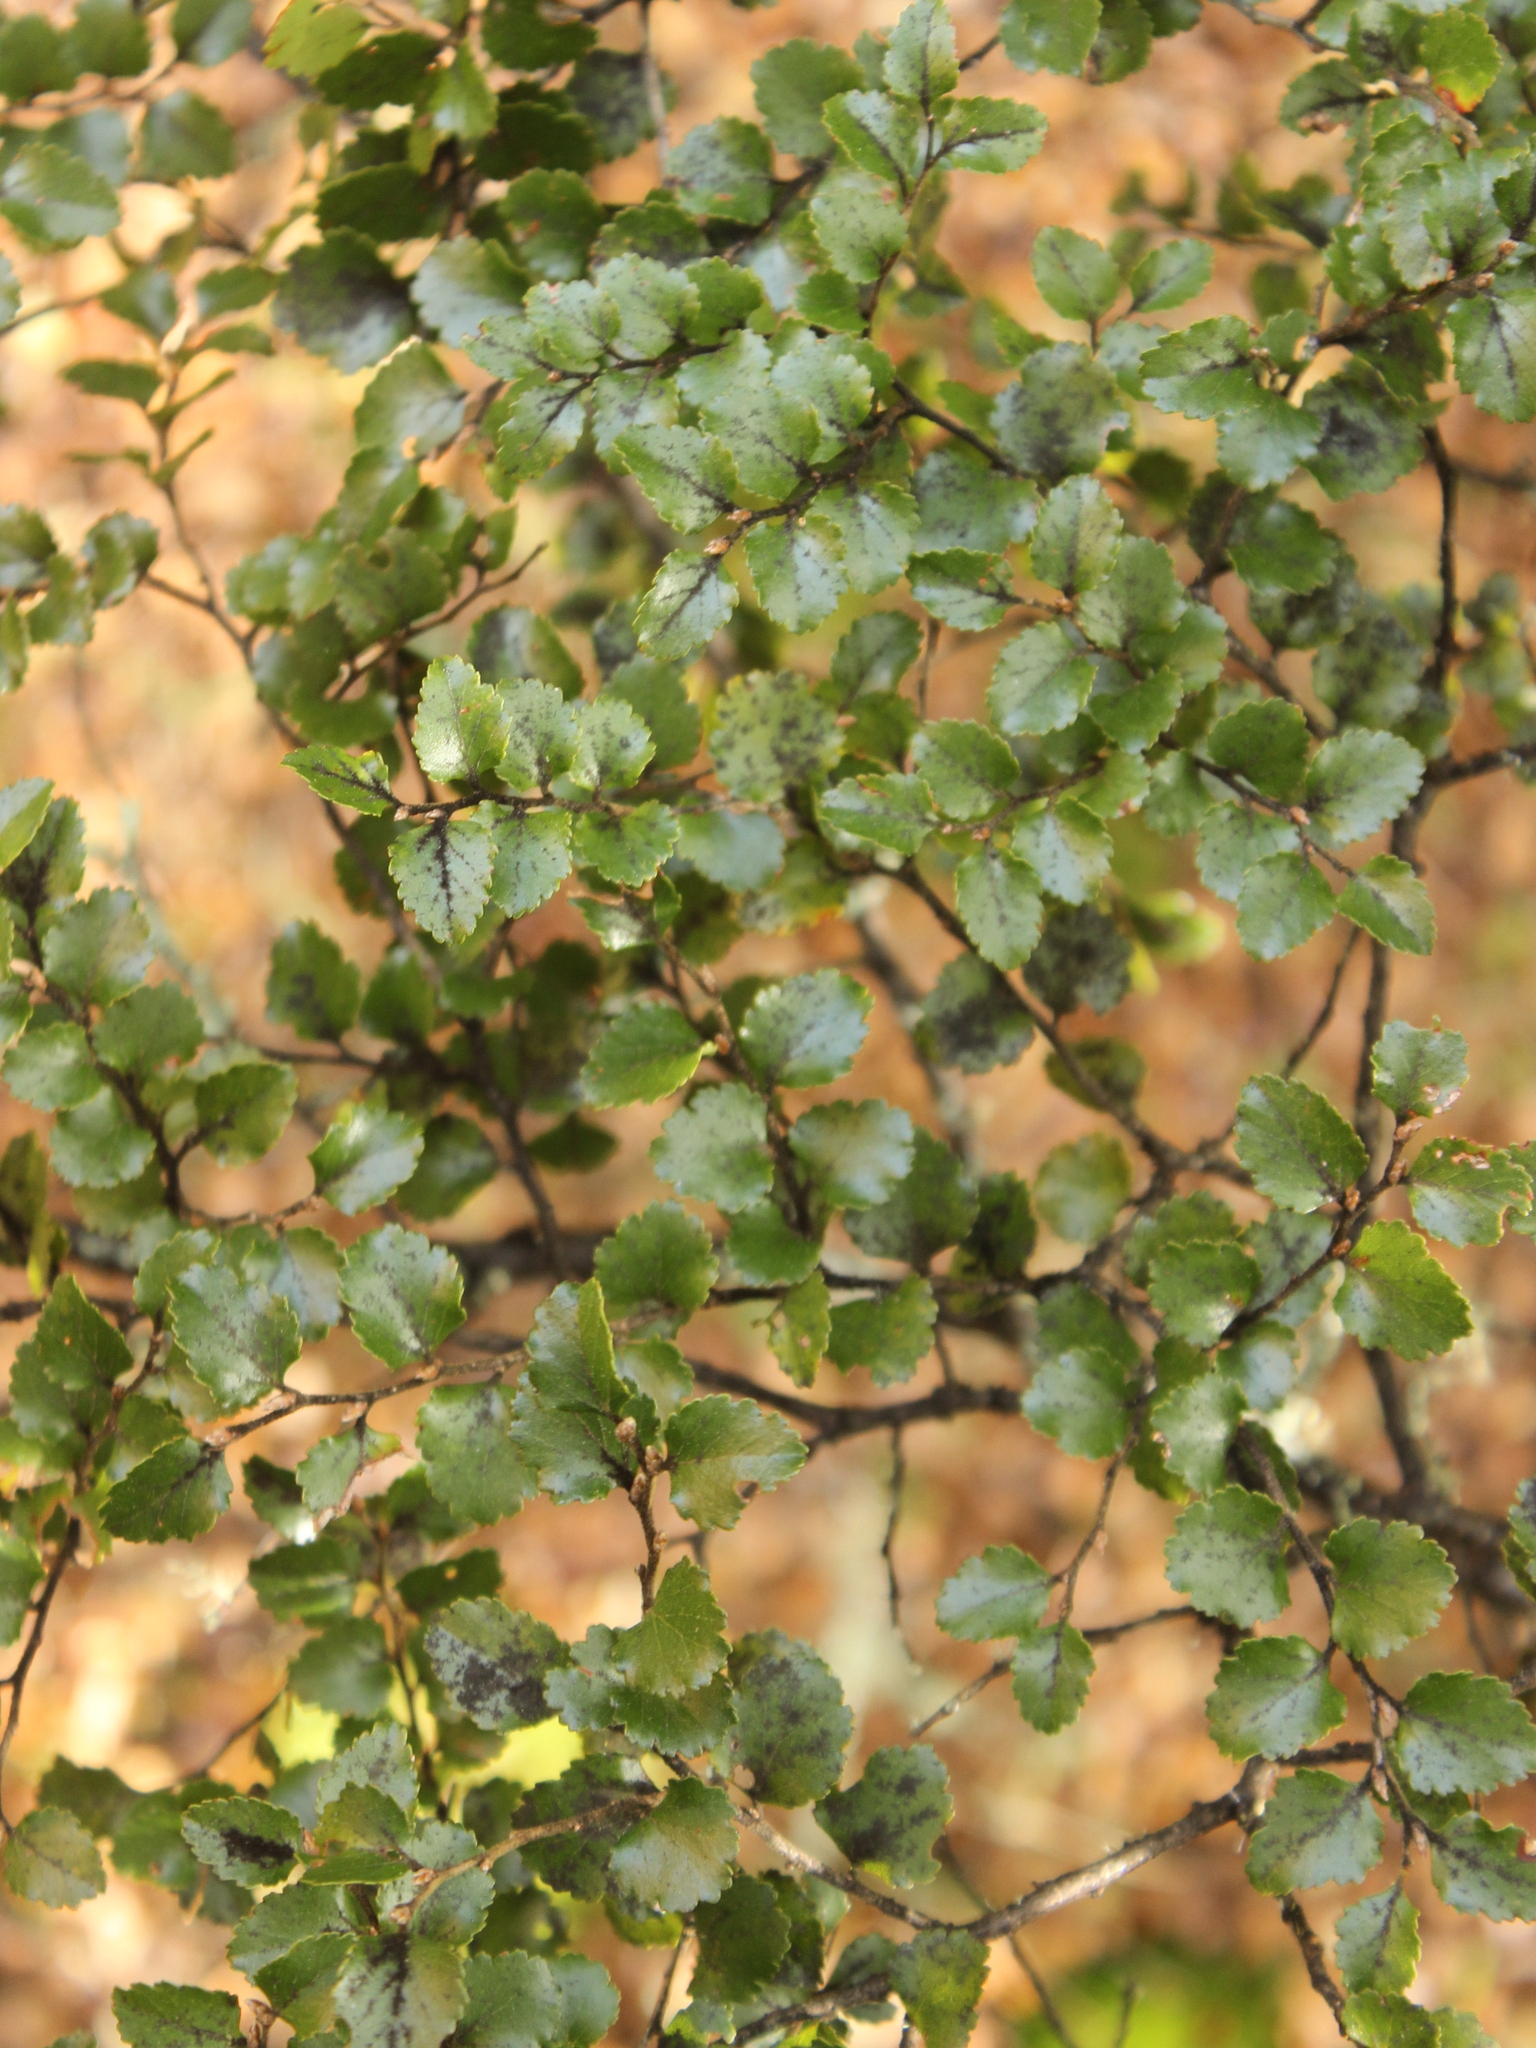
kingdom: Plantae
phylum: Tracheophyta
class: Magnoliopsida
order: Fagales
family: Nothofagaceae
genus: Nothofagus
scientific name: Nothofagus menziesii
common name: Silver beech
